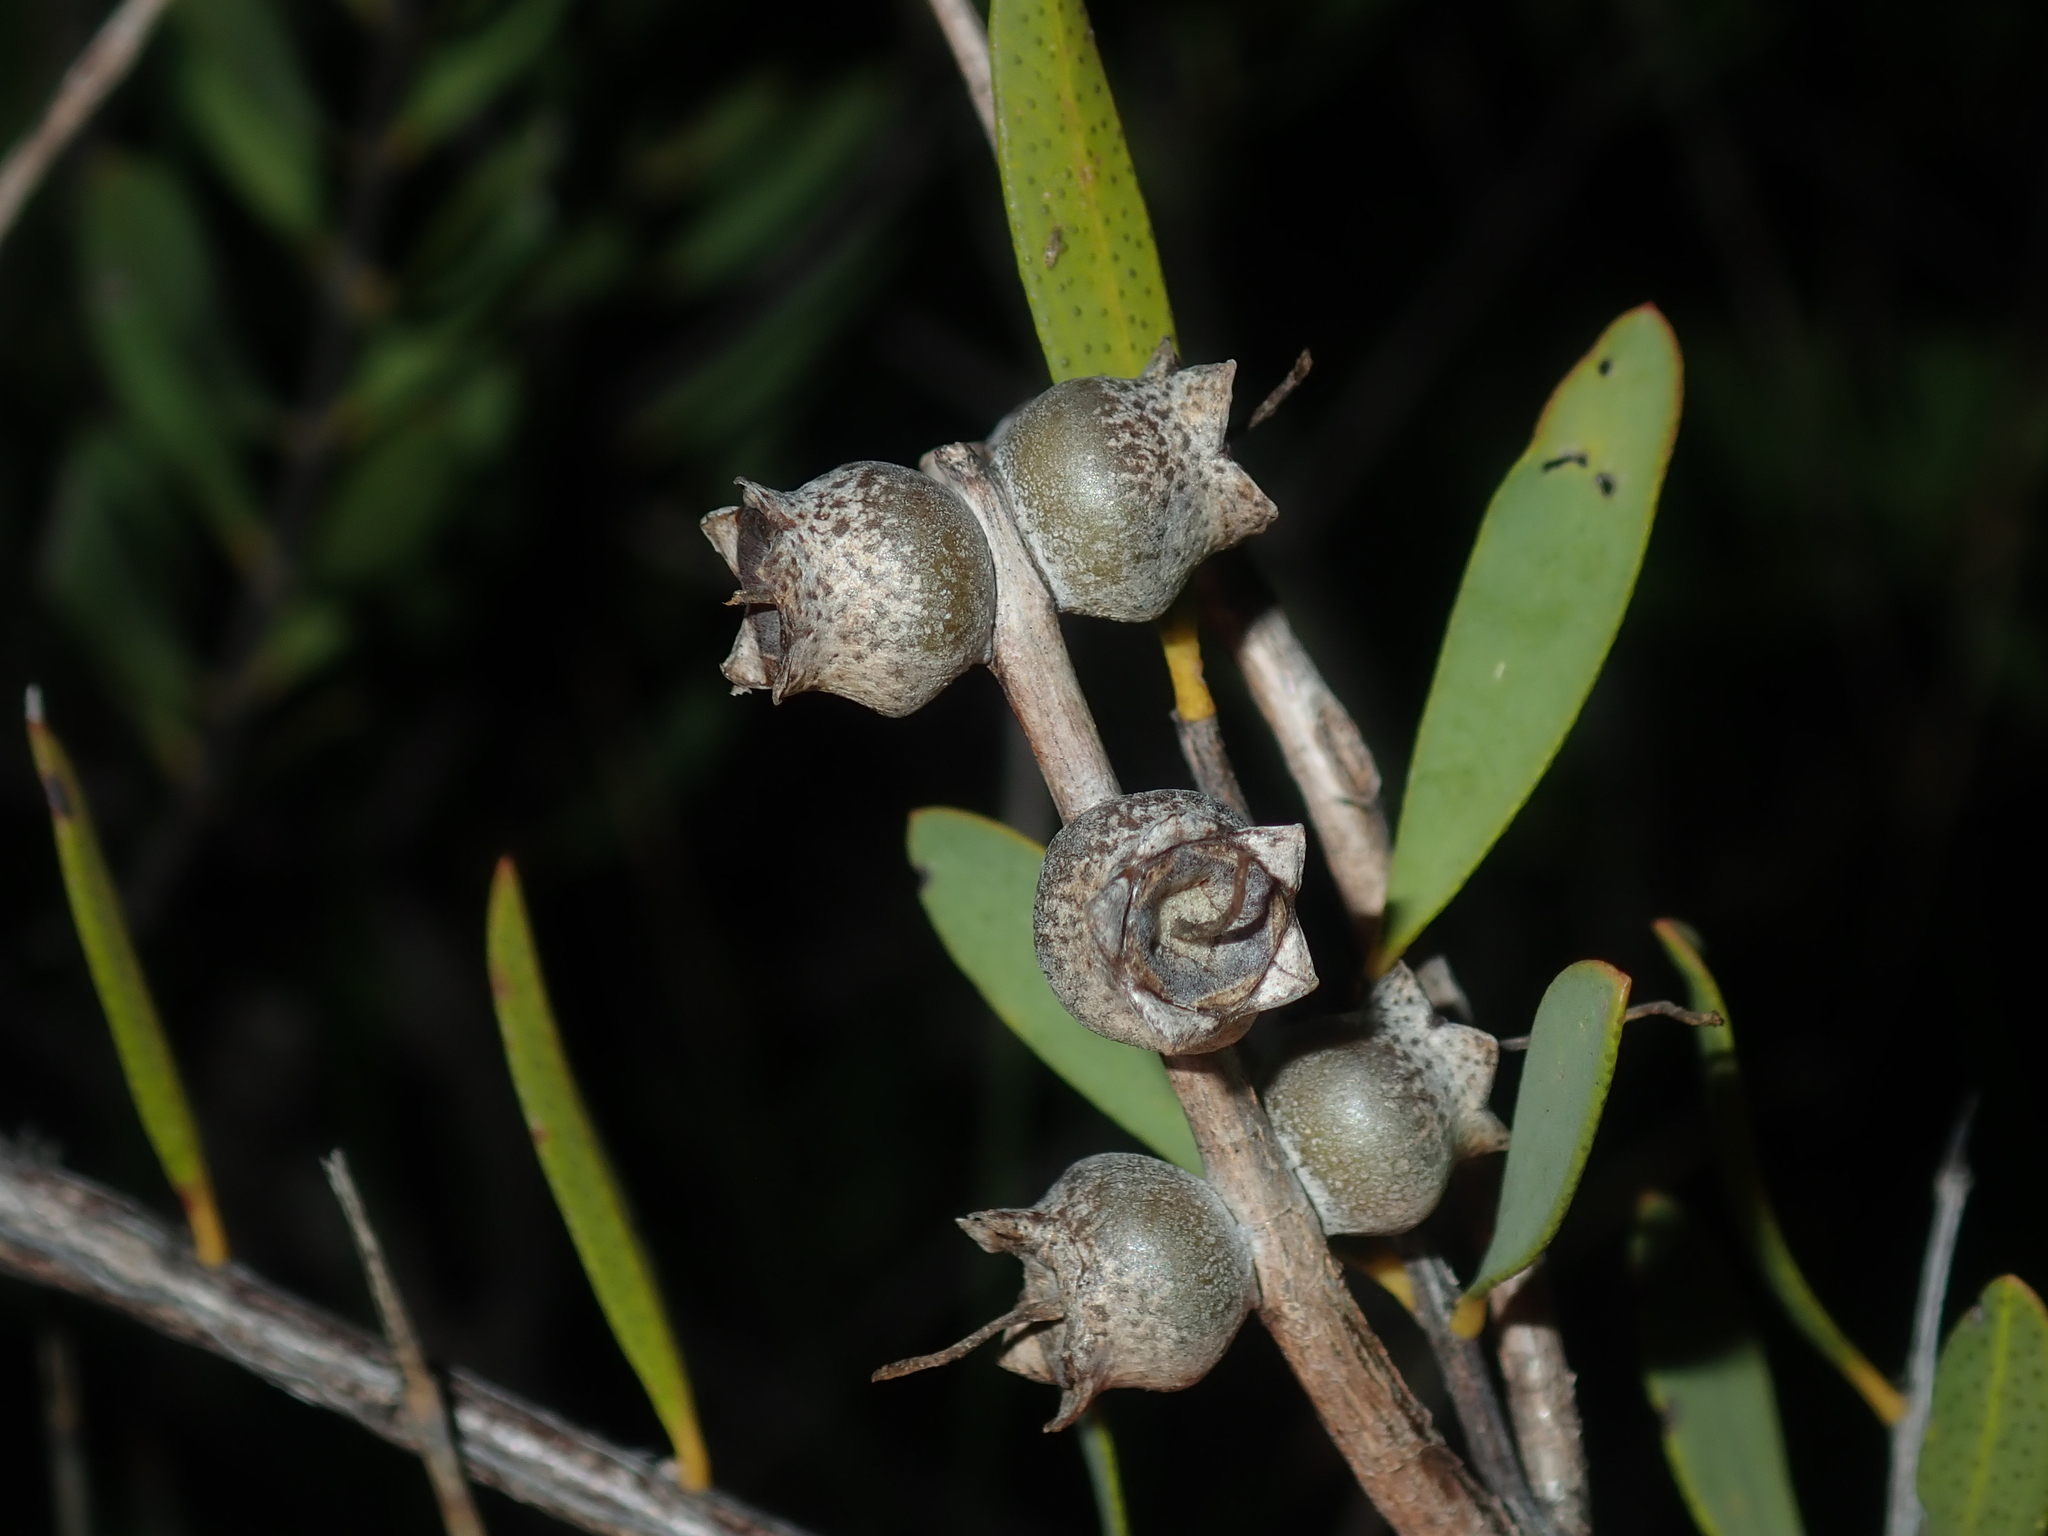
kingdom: Plantae
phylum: Tracheophyta
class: Magnoliopsida
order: Myrtales
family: Myrtaceae
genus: Melaleuca
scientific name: Melaleuca fulgens
